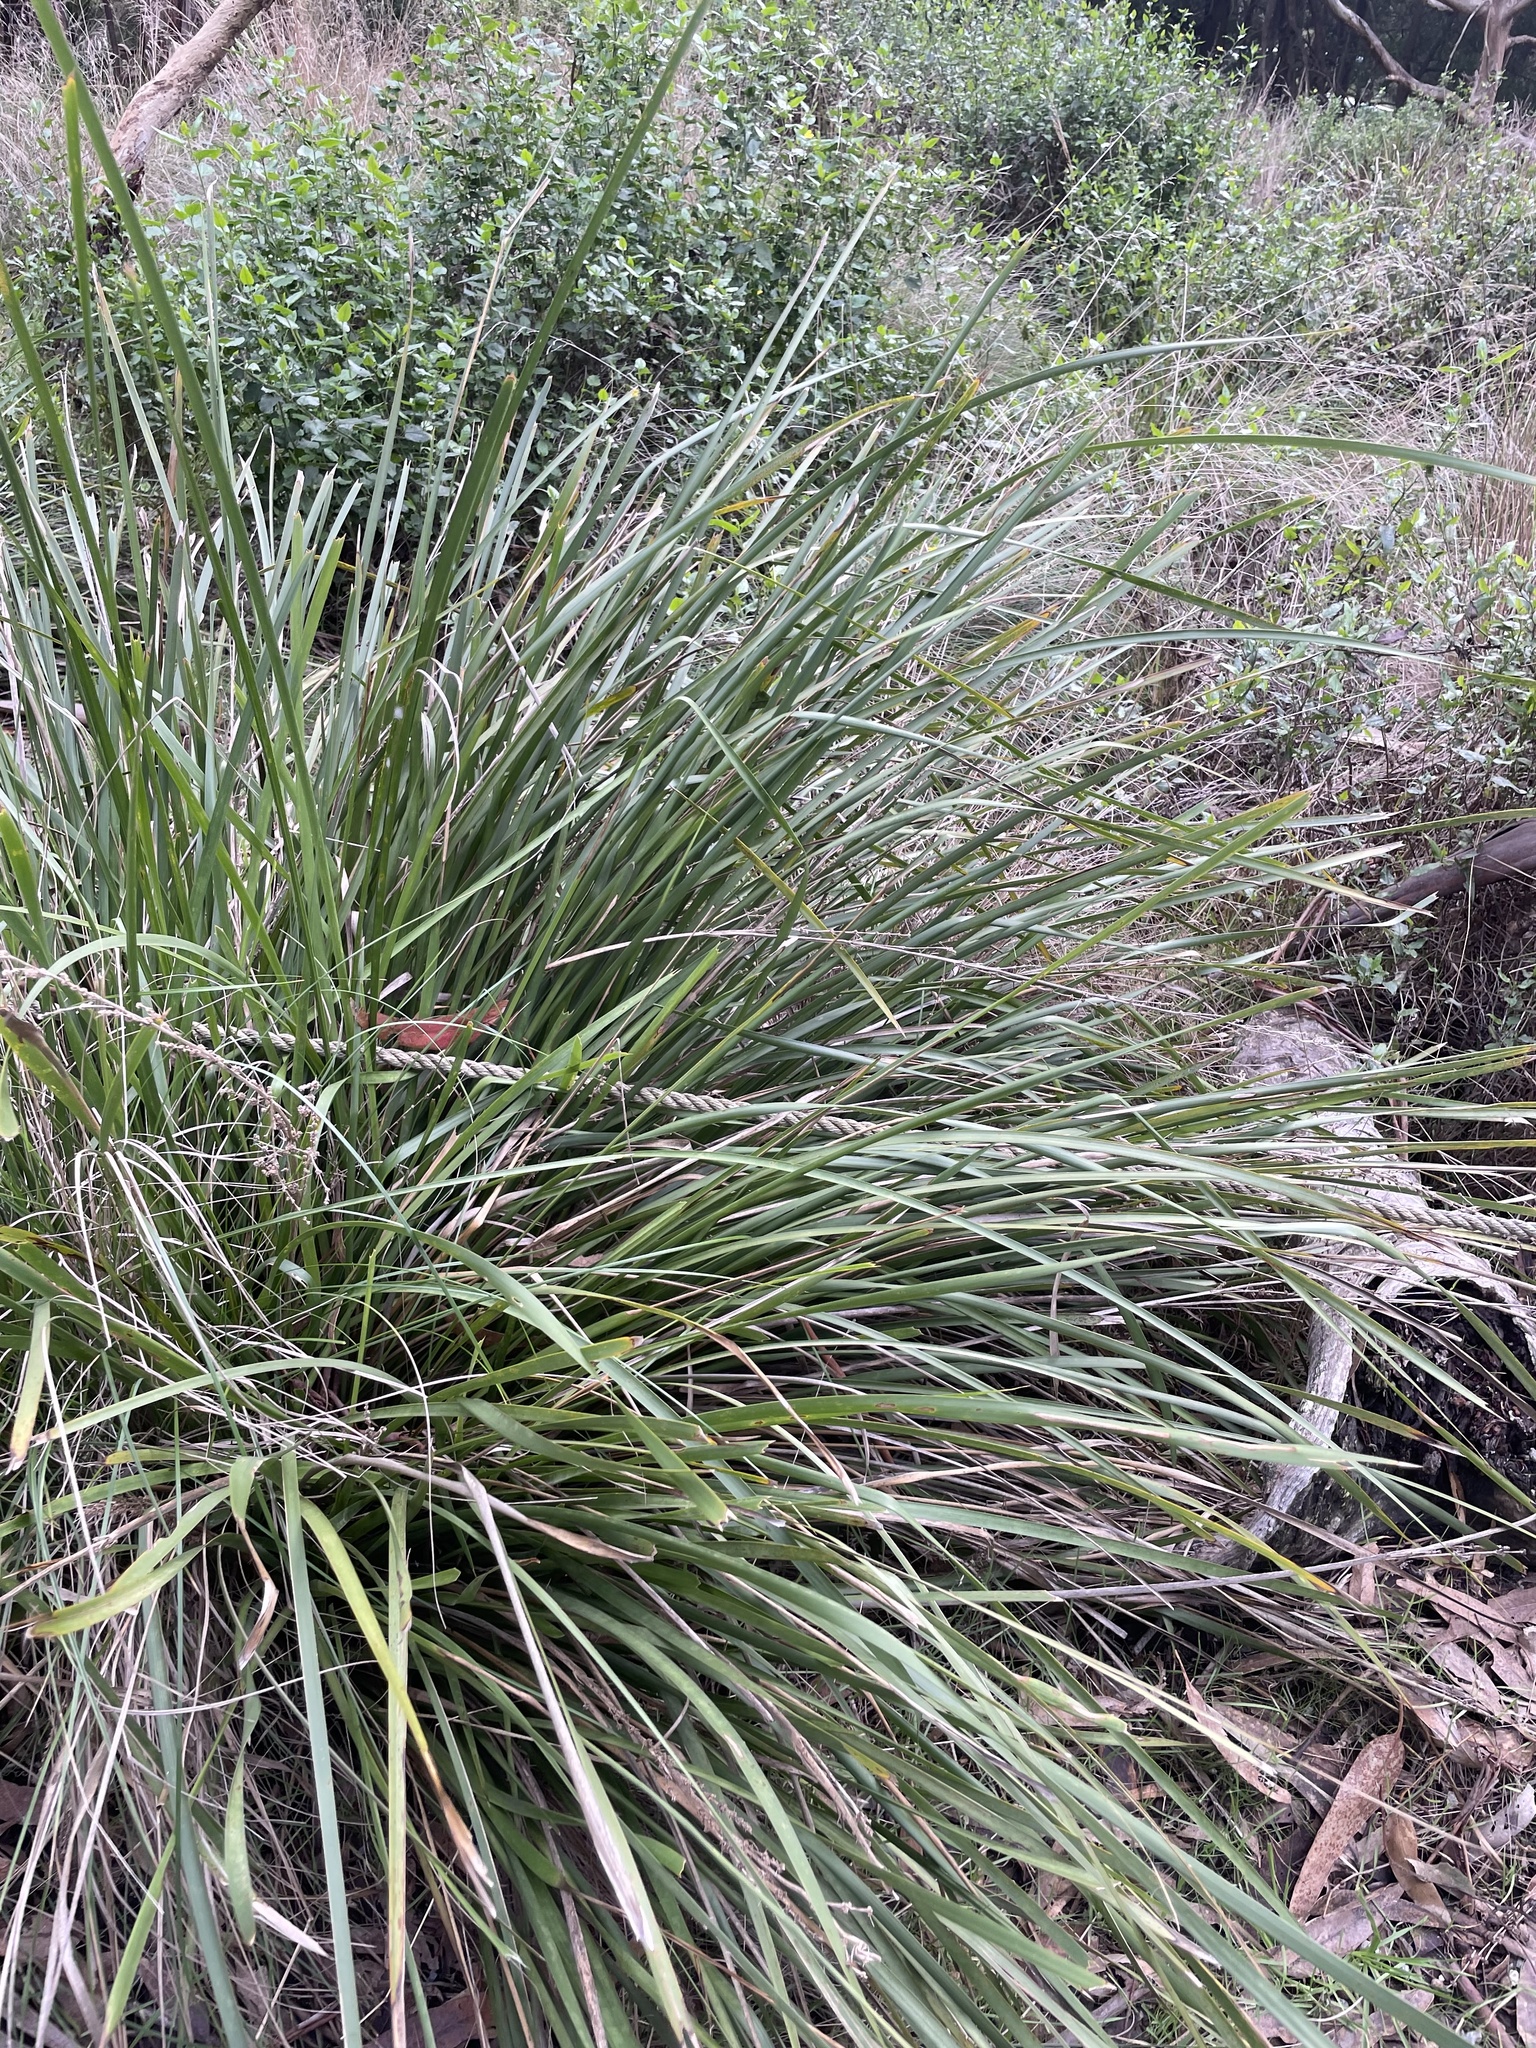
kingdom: Plantae
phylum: Tracheophyta
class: Liliopsida
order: Asparagales
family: Asparagaceae
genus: Lomandra
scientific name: Lomandra longifolia
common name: Longleaf mat-rush
